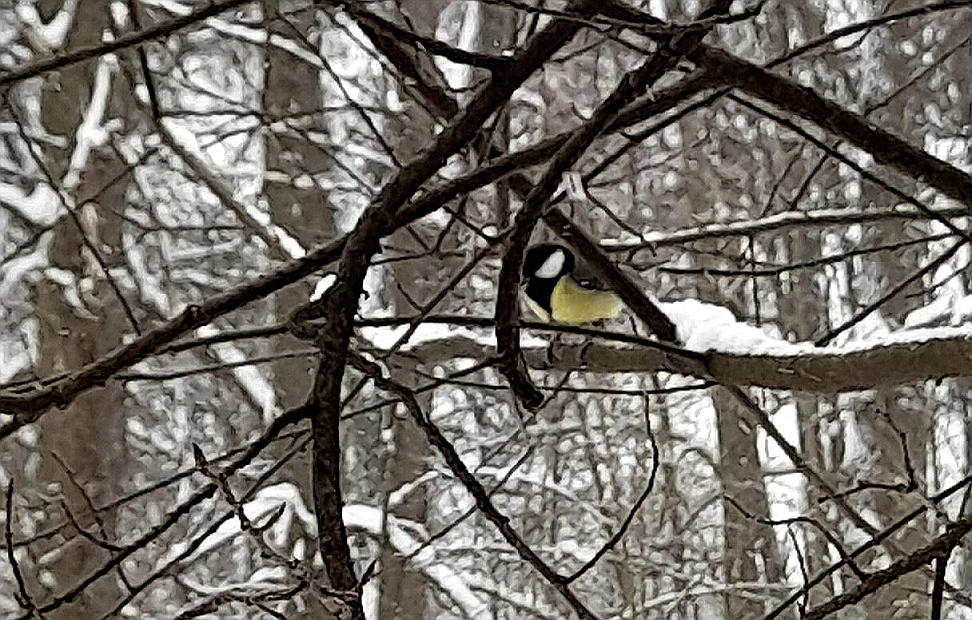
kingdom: Animalia
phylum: Chordata
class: Aves
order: Passeriformes
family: Paridae
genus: Parus
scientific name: Parus major
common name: Great tit
